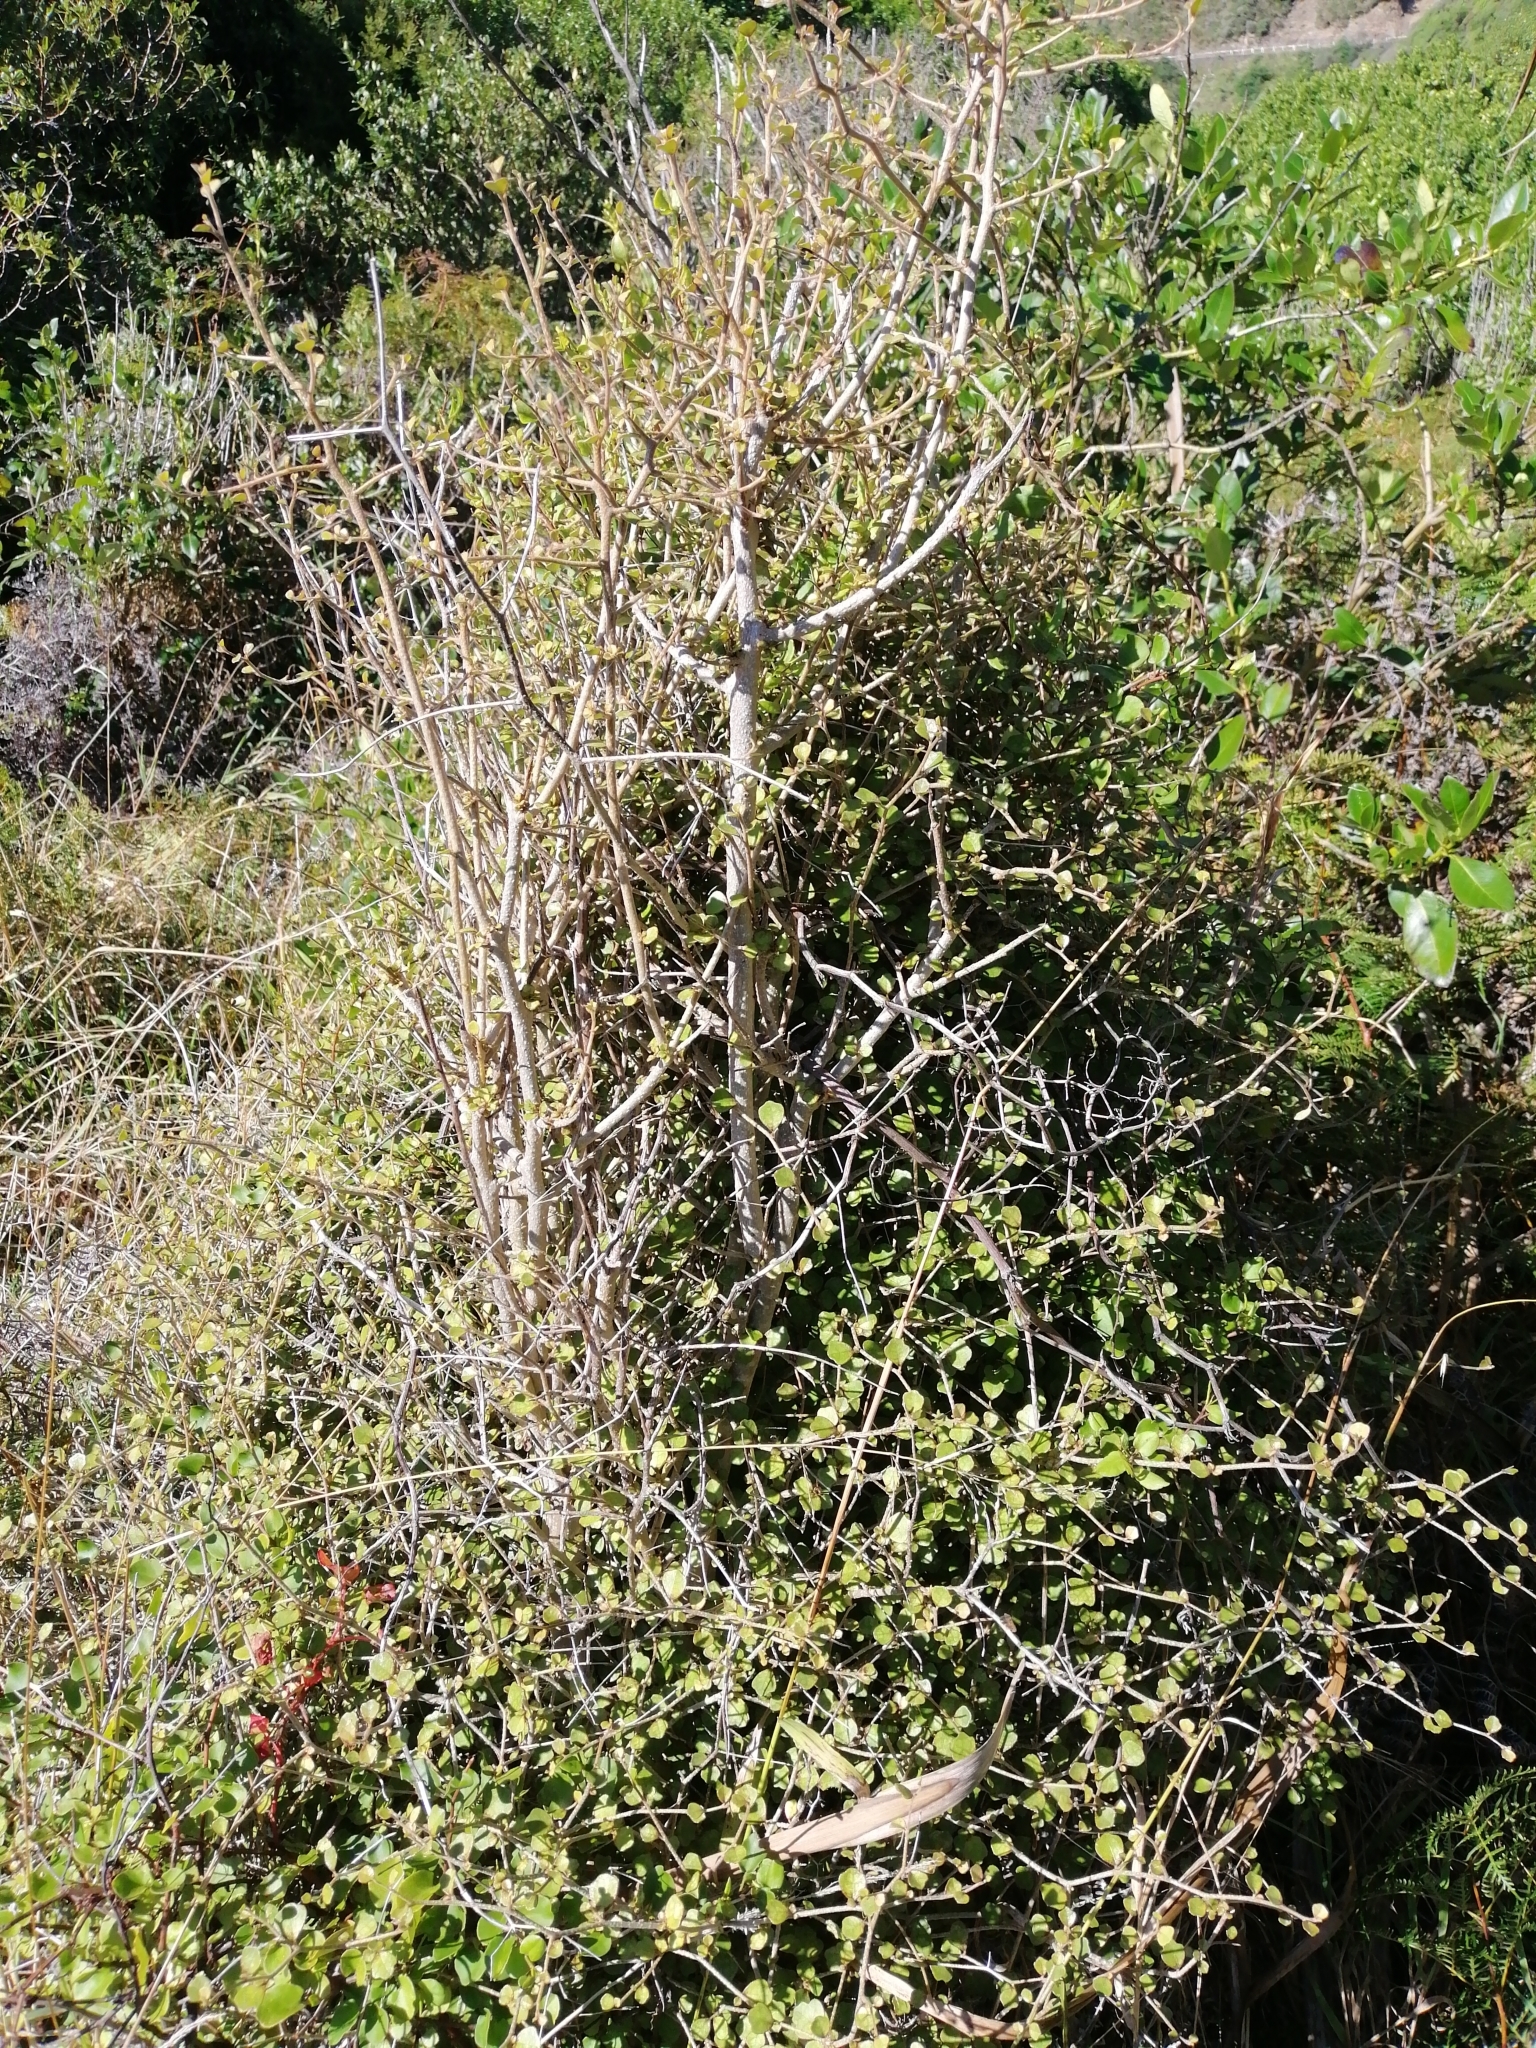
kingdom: Plantae
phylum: Tracheophyta
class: Magnoliopsida
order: Apiales
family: Pennantiaceae
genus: Pennantia
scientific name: Pennantia corymbosa
